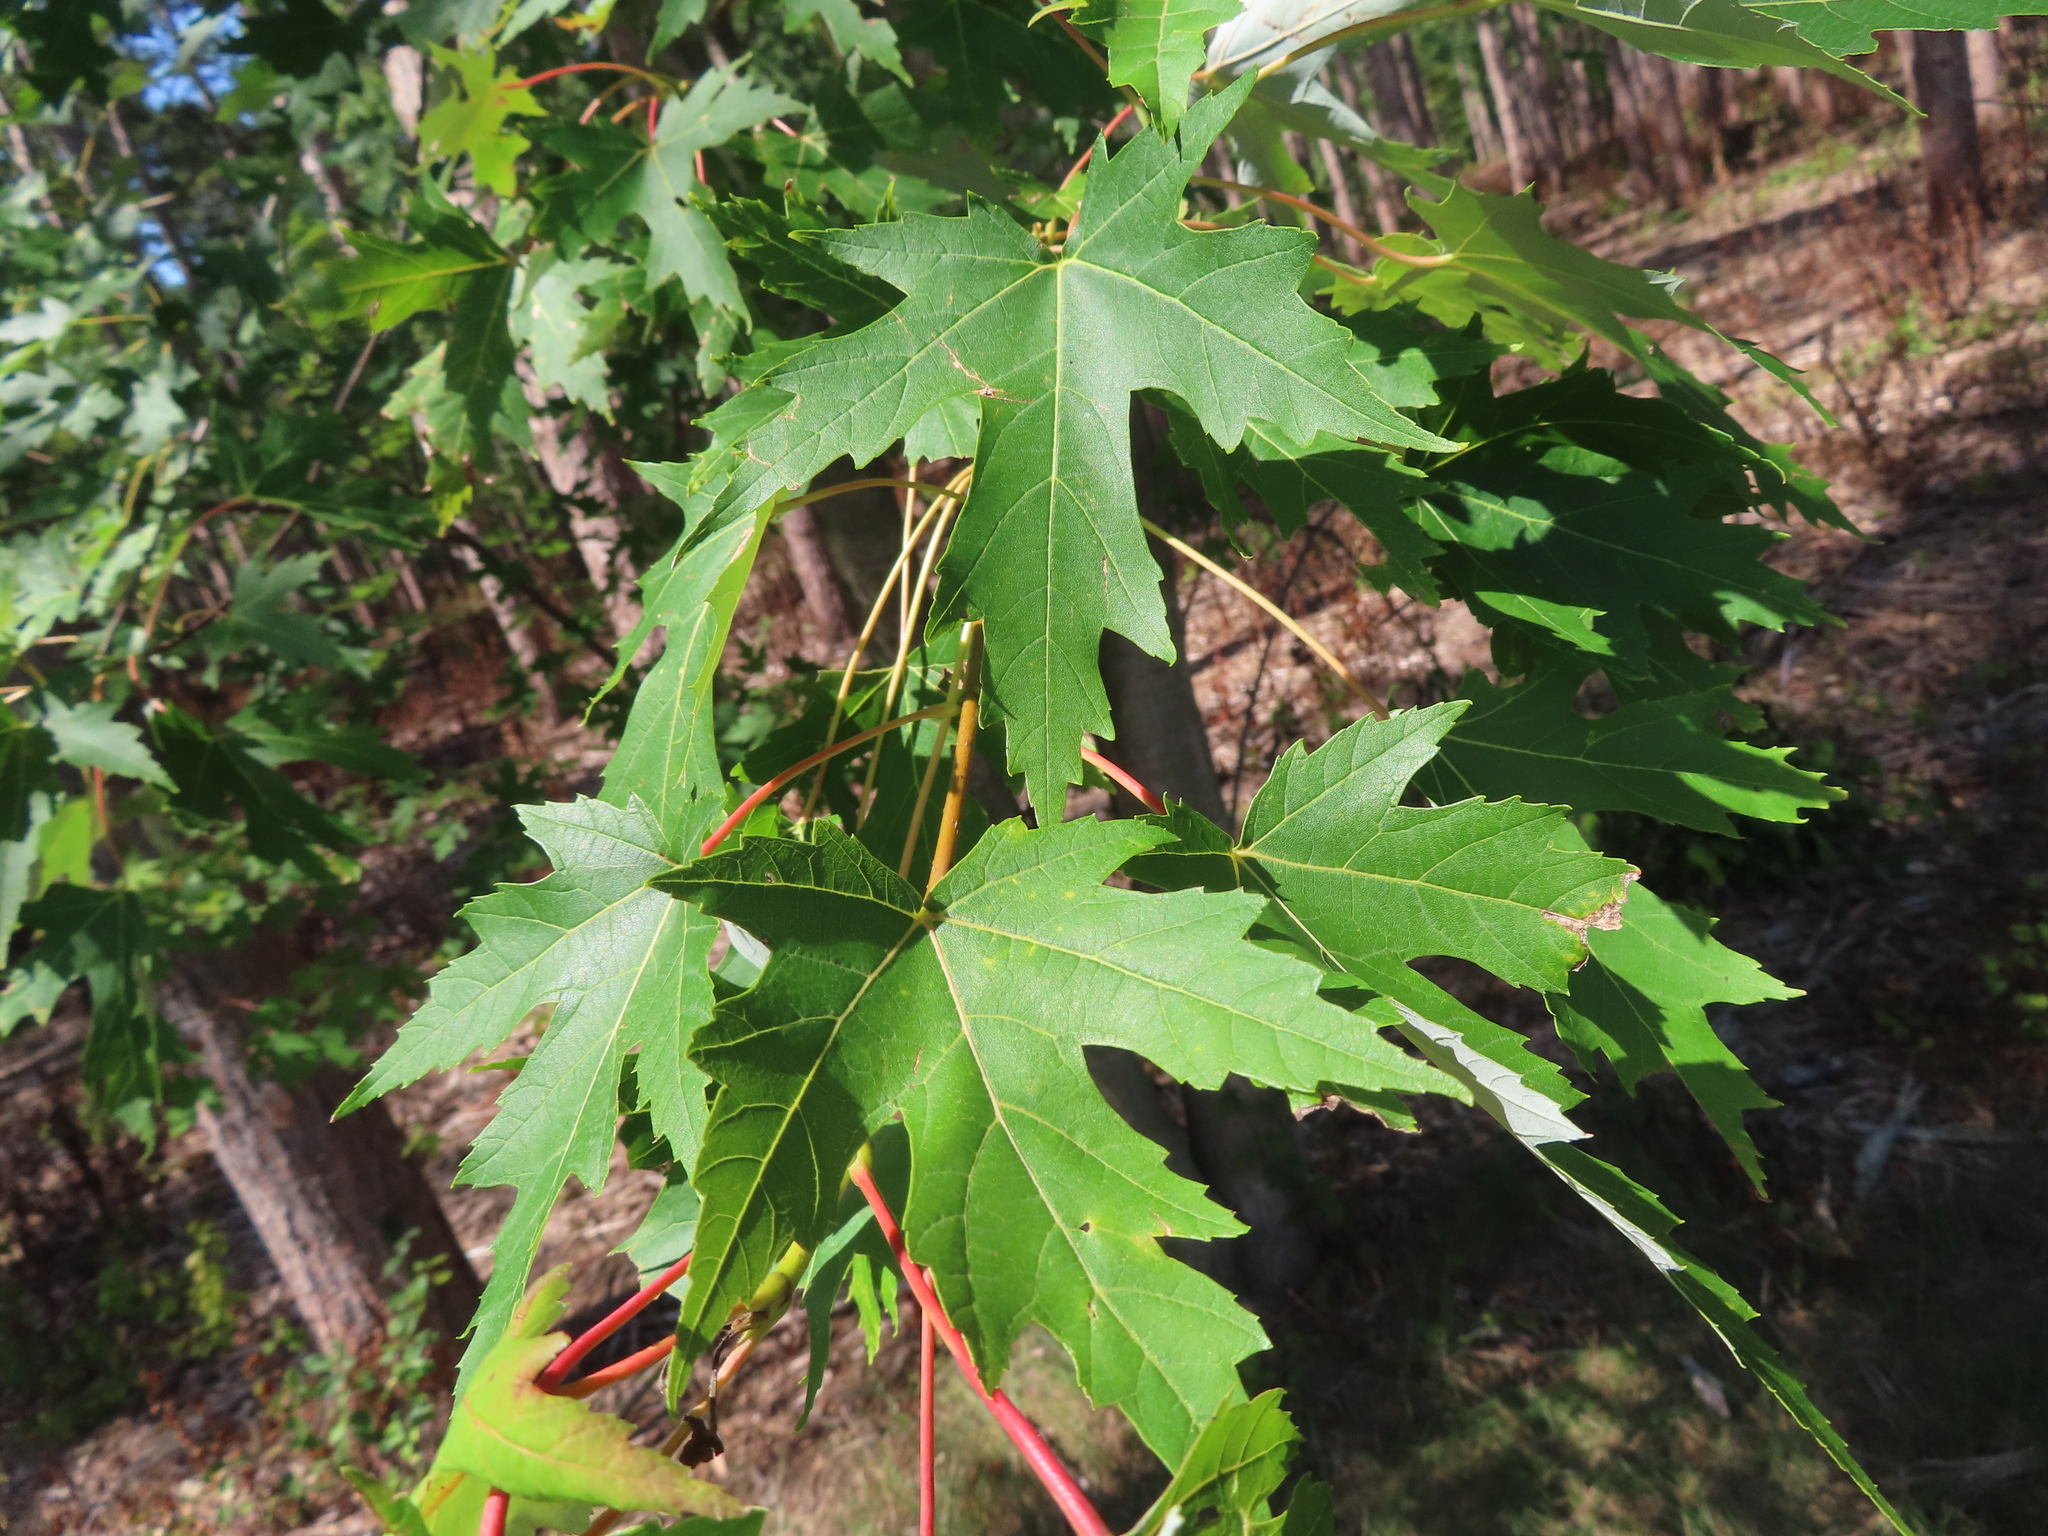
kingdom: Plantae
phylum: Tracheophyta
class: Magnoliopsida
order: Sapindales
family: Sapindaceae
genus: Acer
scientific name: Acer saccharinum
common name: Silver maple
